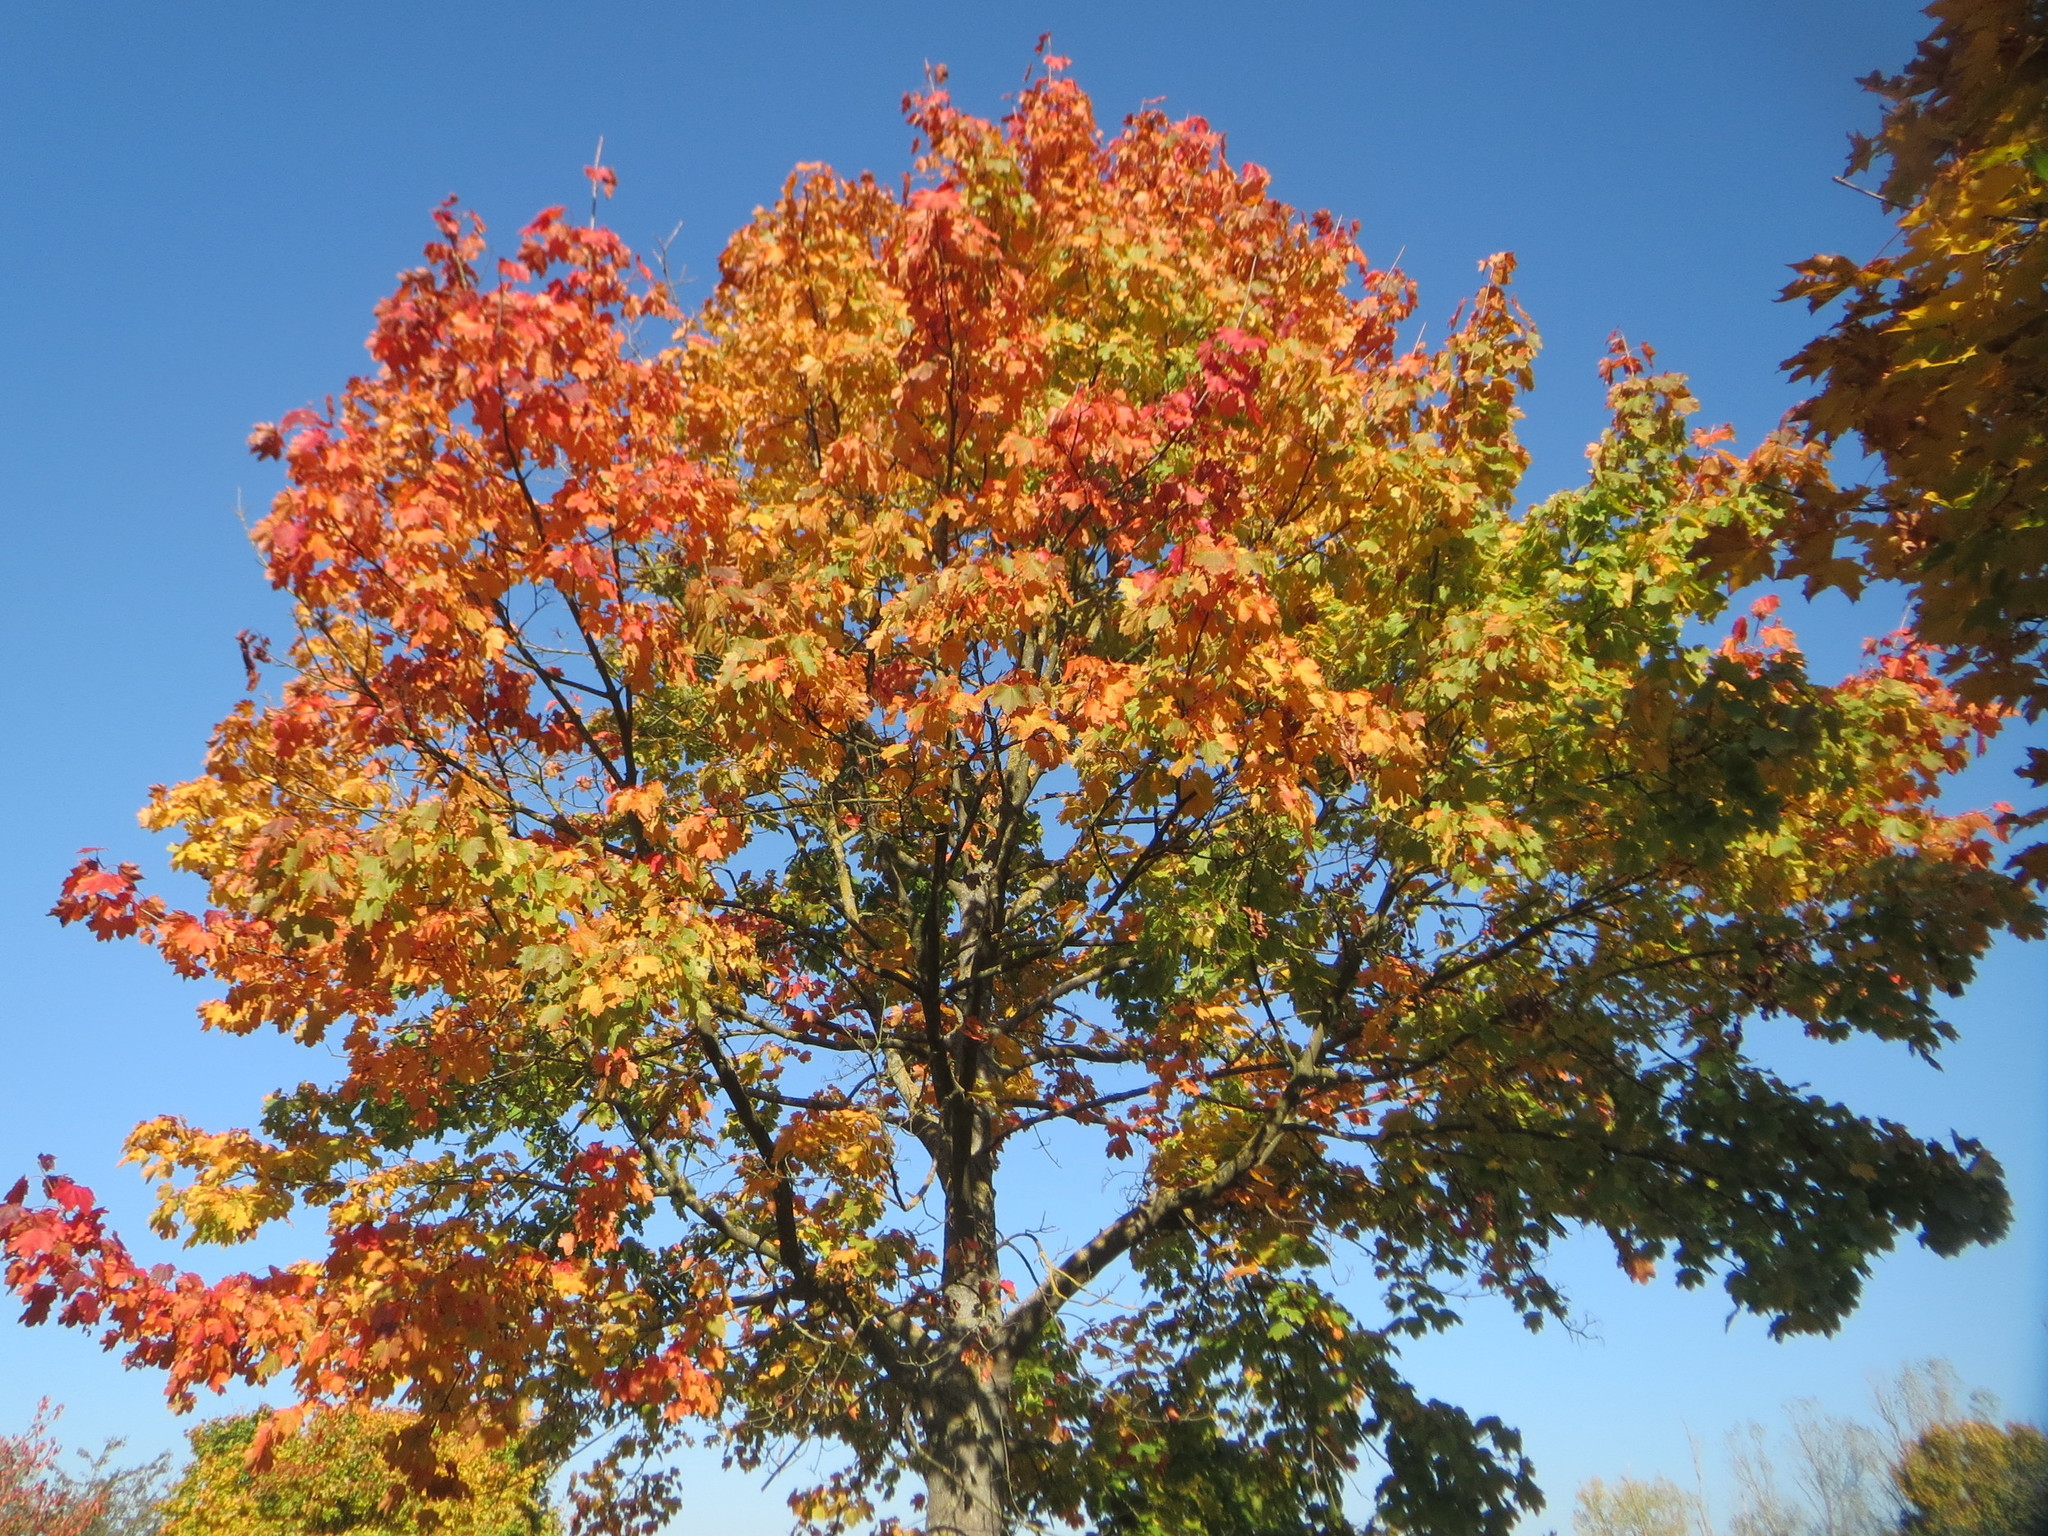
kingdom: Plantae
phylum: Tracheophyta
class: Magnoliopsida
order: Sapindales
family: Sapindaceae
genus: Acer
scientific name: Acer platanoides
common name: Norway maple
